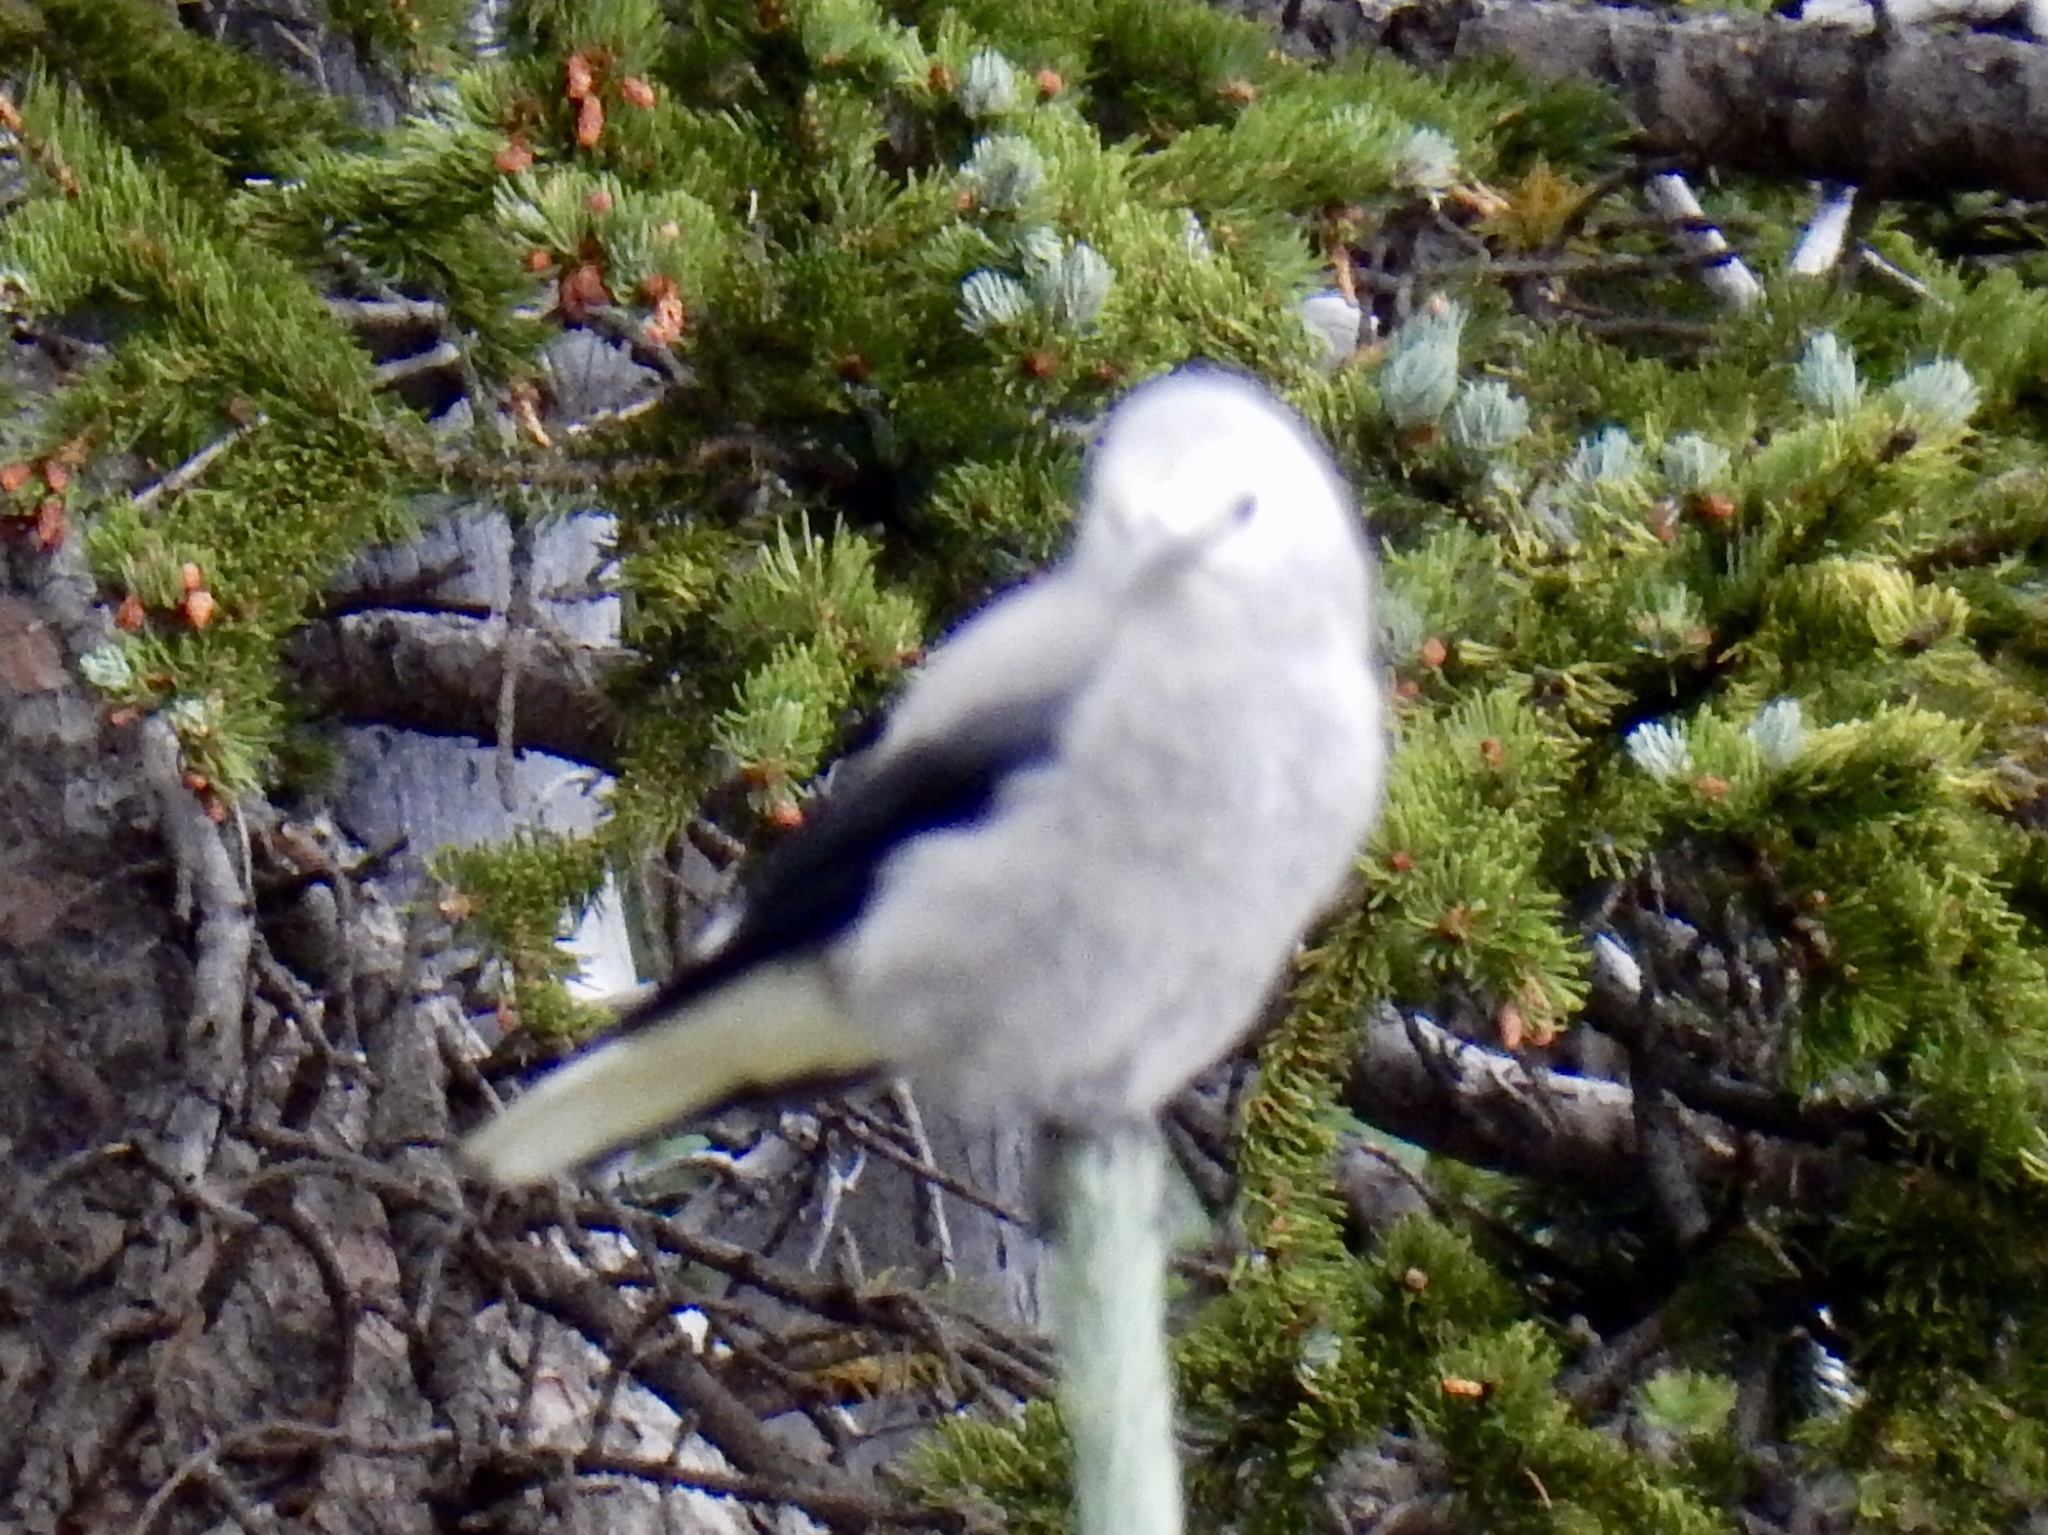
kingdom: Animalia
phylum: Chordata
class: Aves
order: Passeriformes
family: Corvidae
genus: Nucifraga
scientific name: Nucifraga columbiana
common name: Clark's nutcracker
